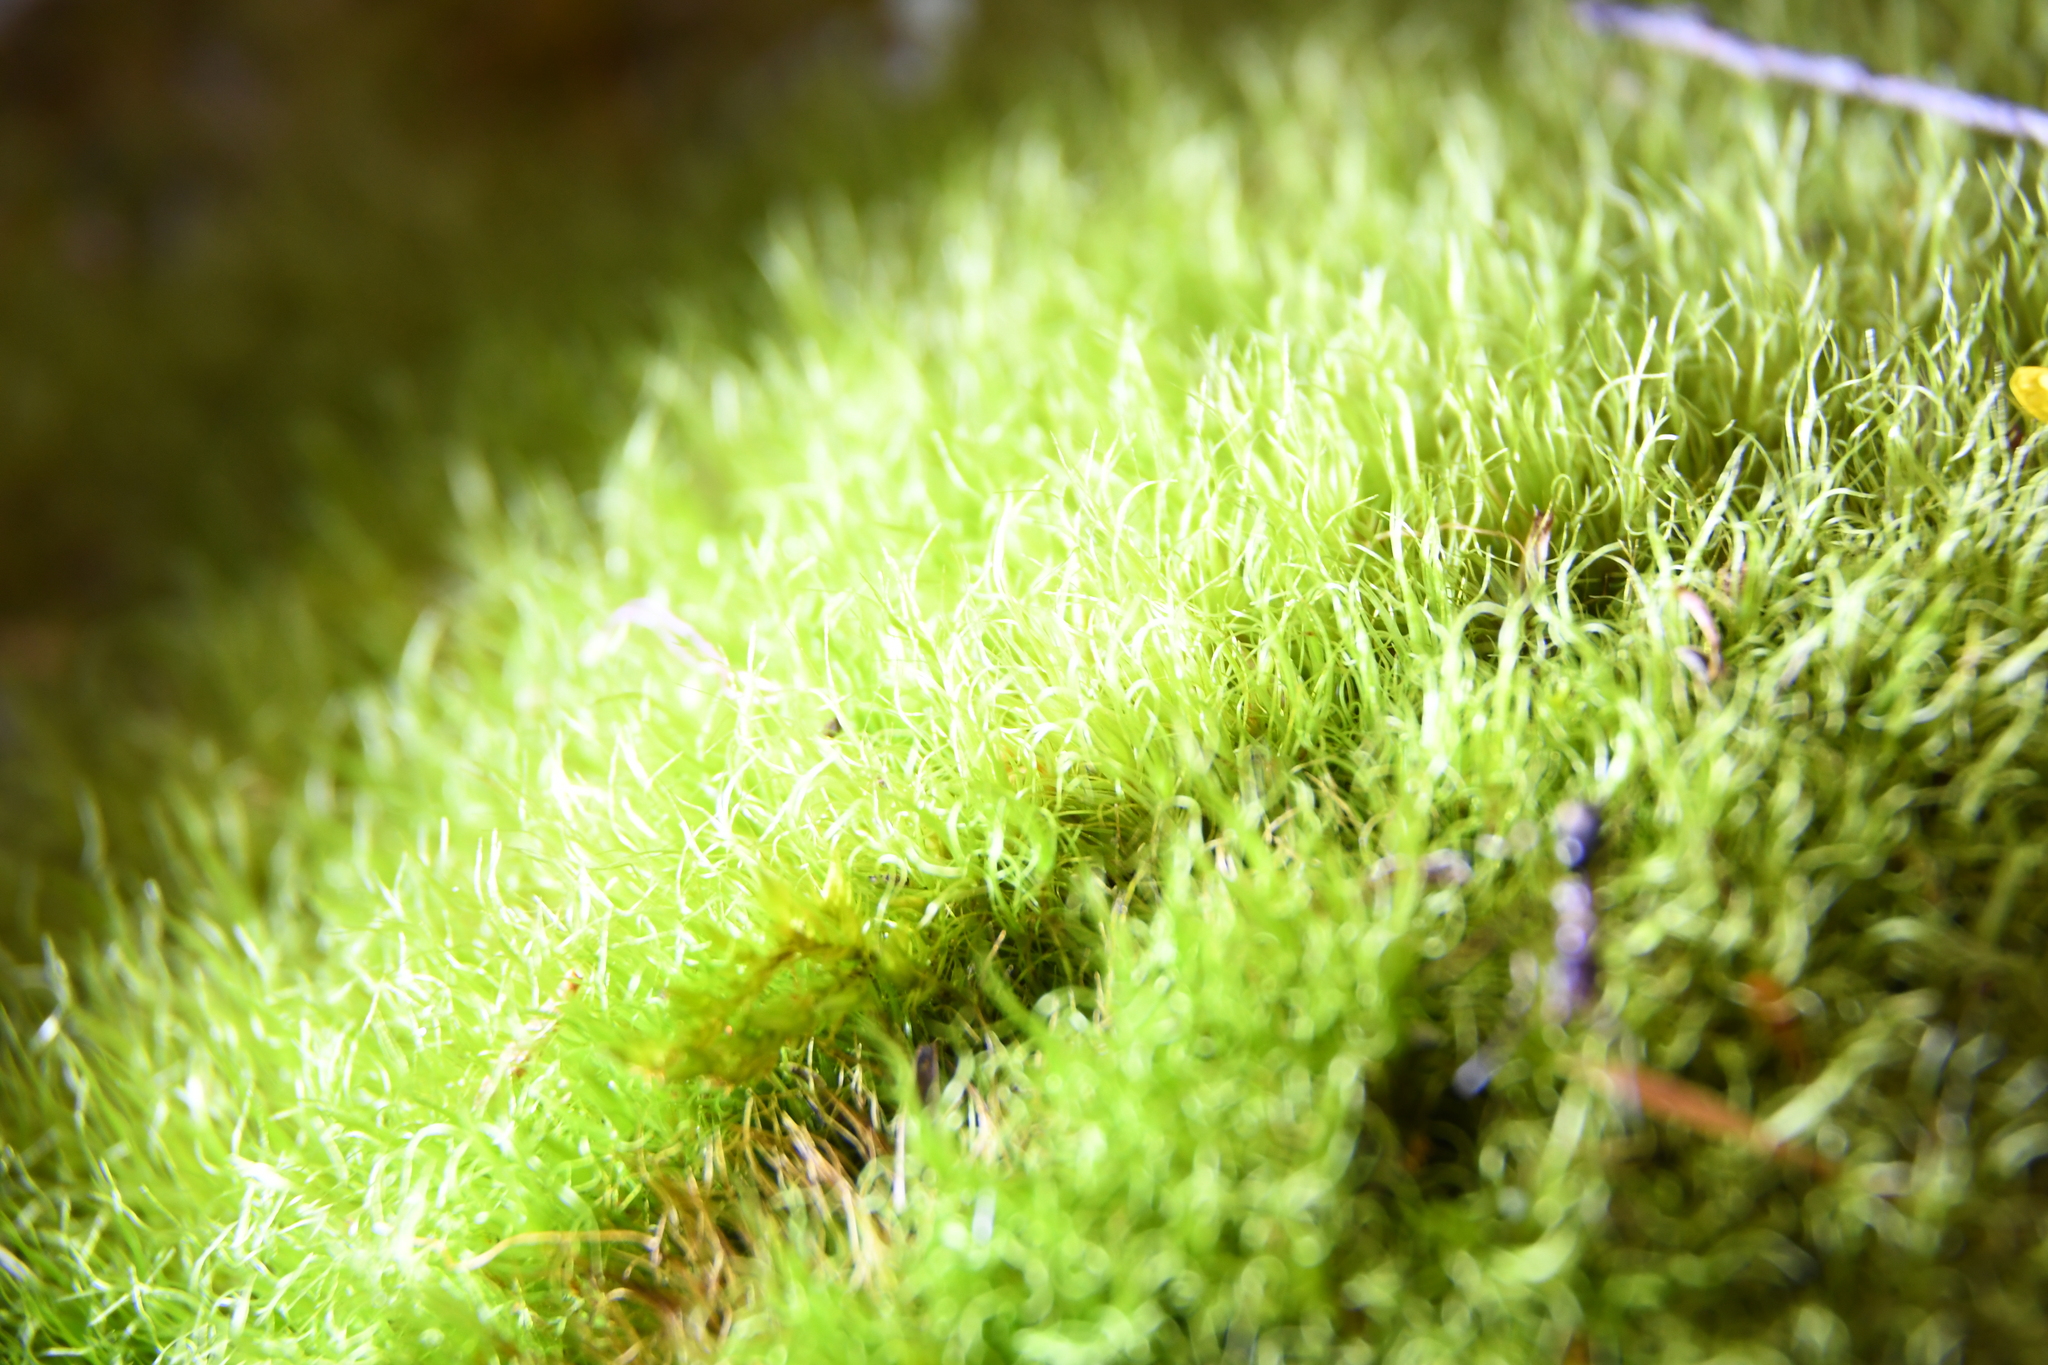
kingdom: Plantae
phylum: Bryophyta
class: Bryopsida
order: Dicranales
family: Dicranaceae
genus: Dicranoloma
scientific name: Dicranoloma diaphanoneuron
